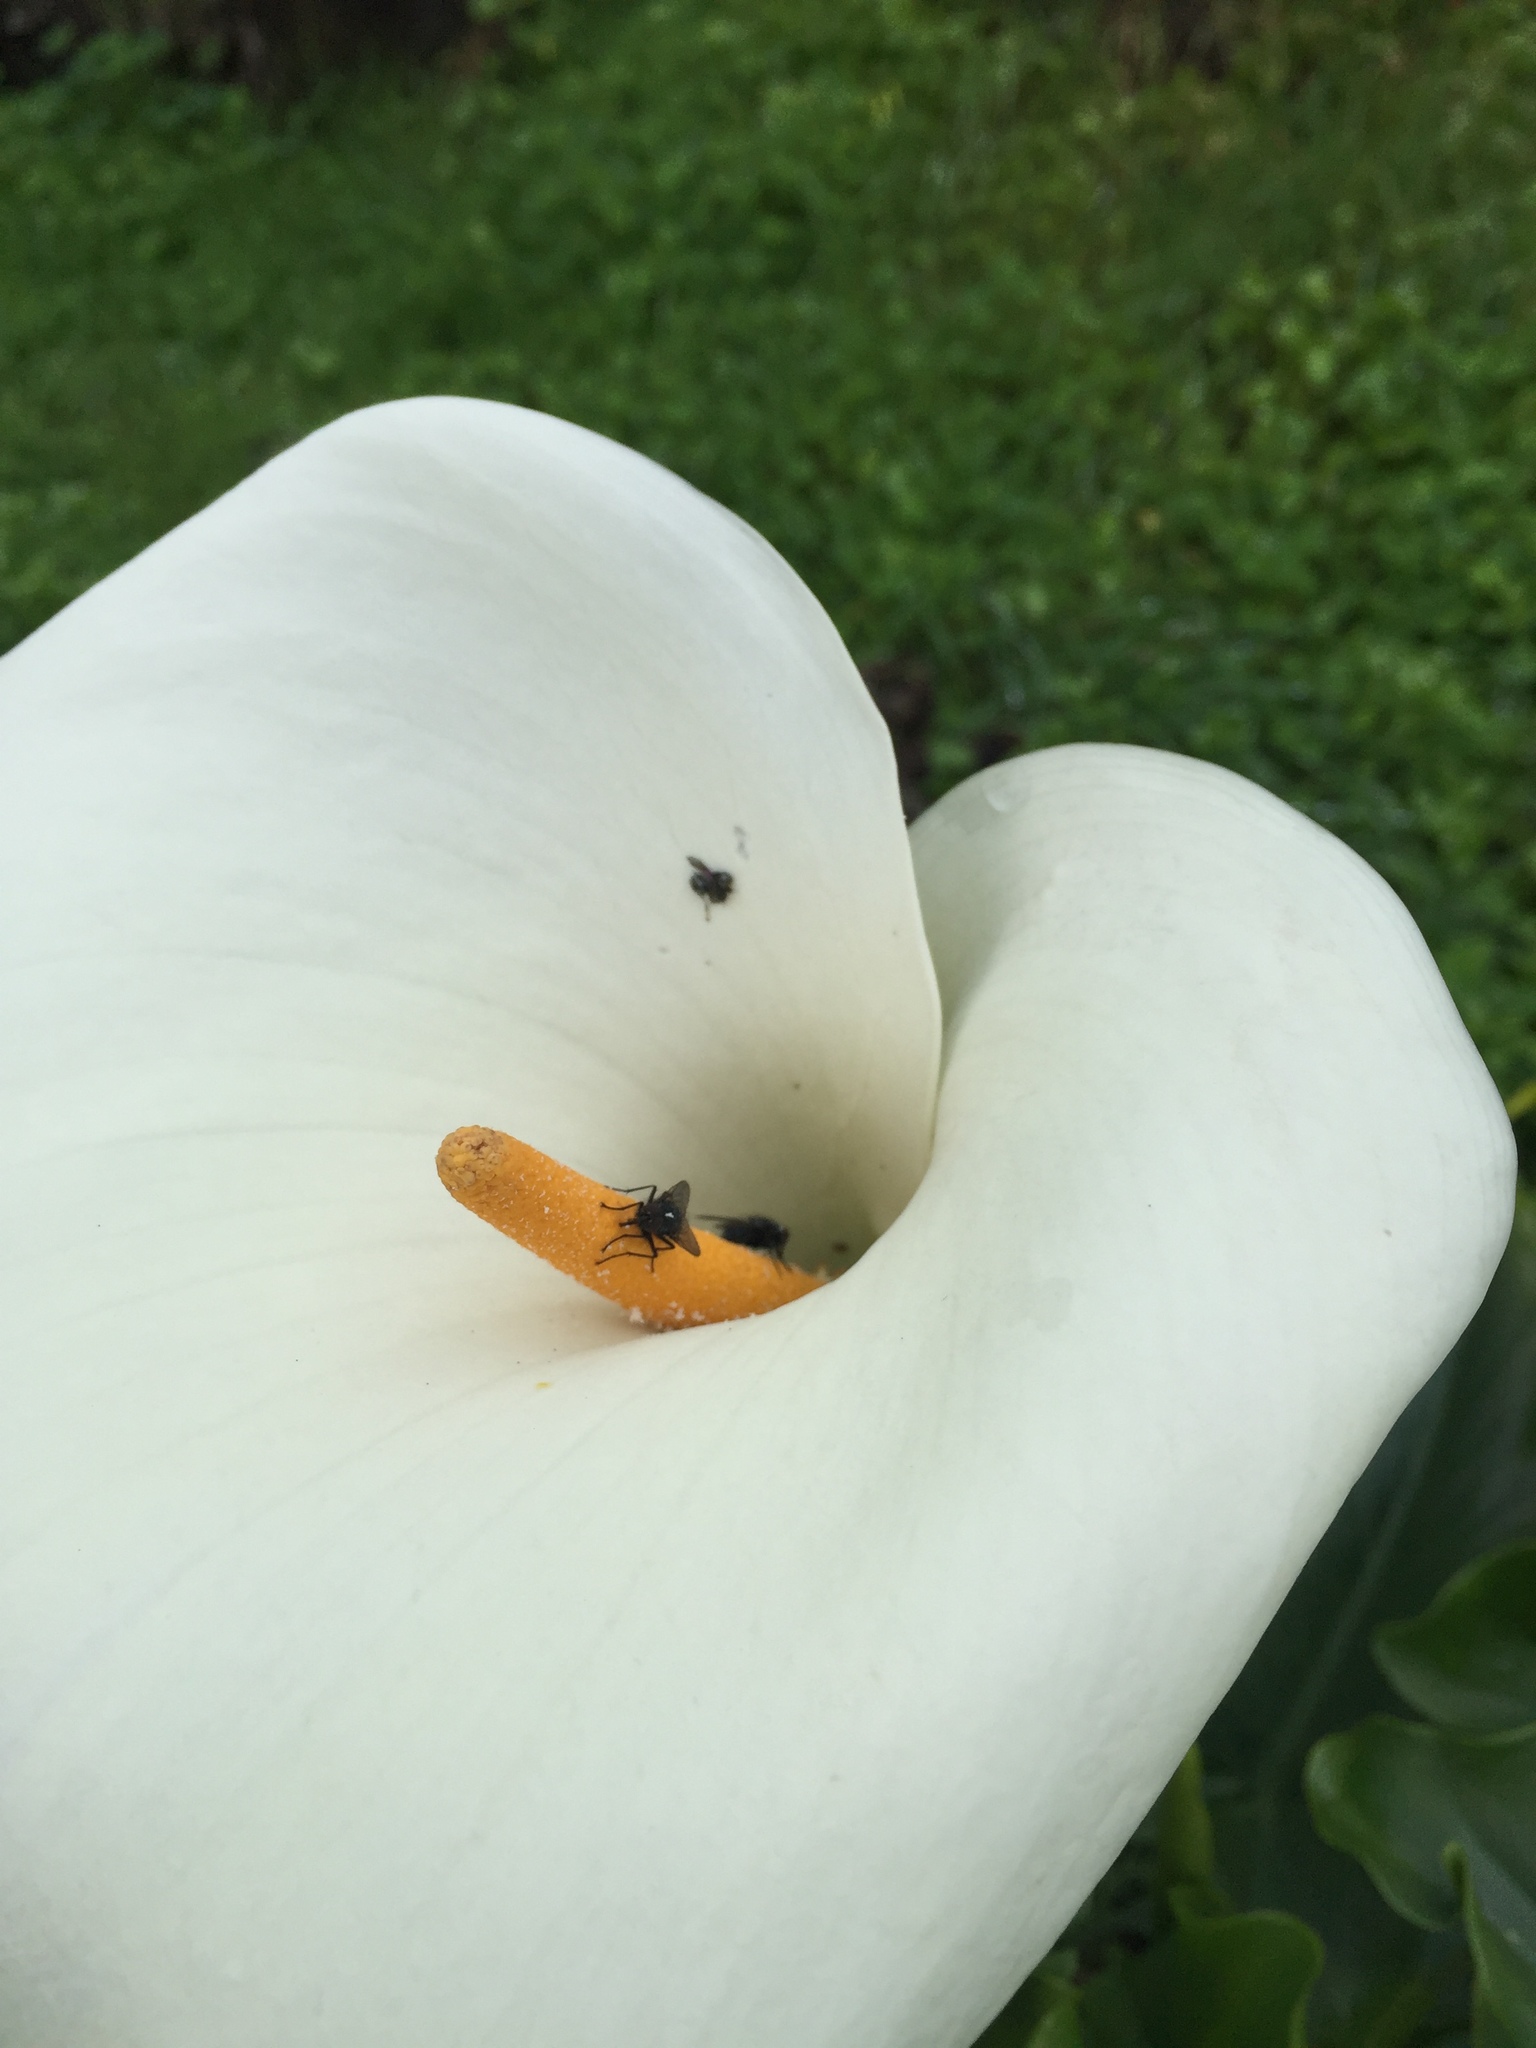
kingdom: Plantae
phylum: Tracheophyta
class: Liliopsida
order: Alismatales
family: Araceae
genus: Zantedeschia
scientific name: Zantedeschia aethiopica
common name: Altar-lily
